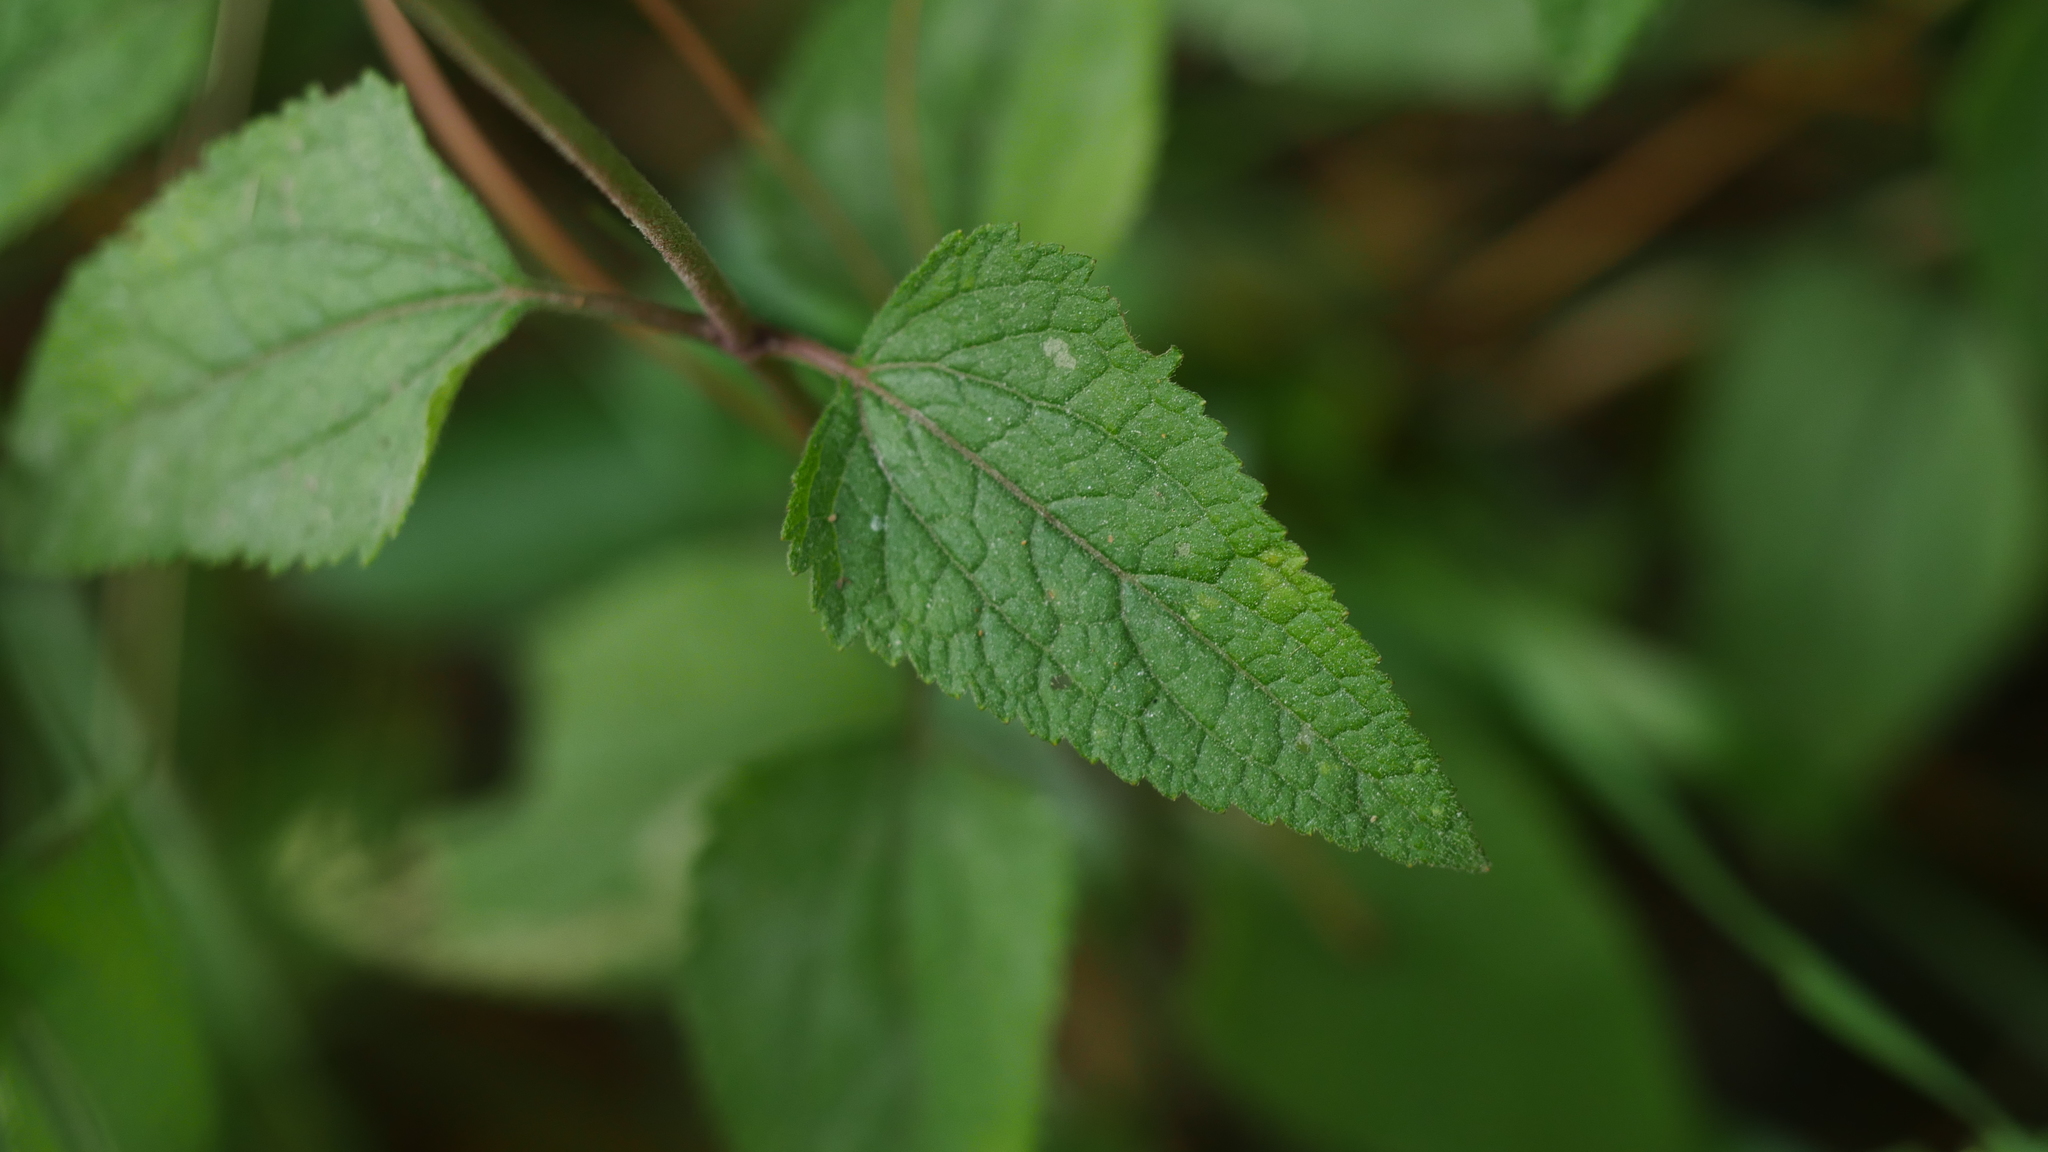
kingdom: Plantae
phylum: Tracheophyta
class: Magnoliopsida
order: Asterales
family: Asteraceae
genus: Conoclinium
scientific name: Conoclinium coelestinum
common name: Blue mistflower
